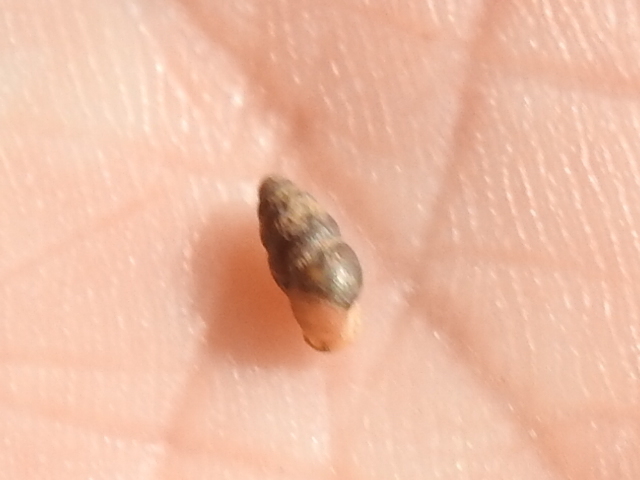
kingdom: Animalia
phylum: Mollusca
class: Gastropoda
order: Stylommatophora
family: Pupillidae
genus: Pupoides
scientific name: Pupoides nitidulus
